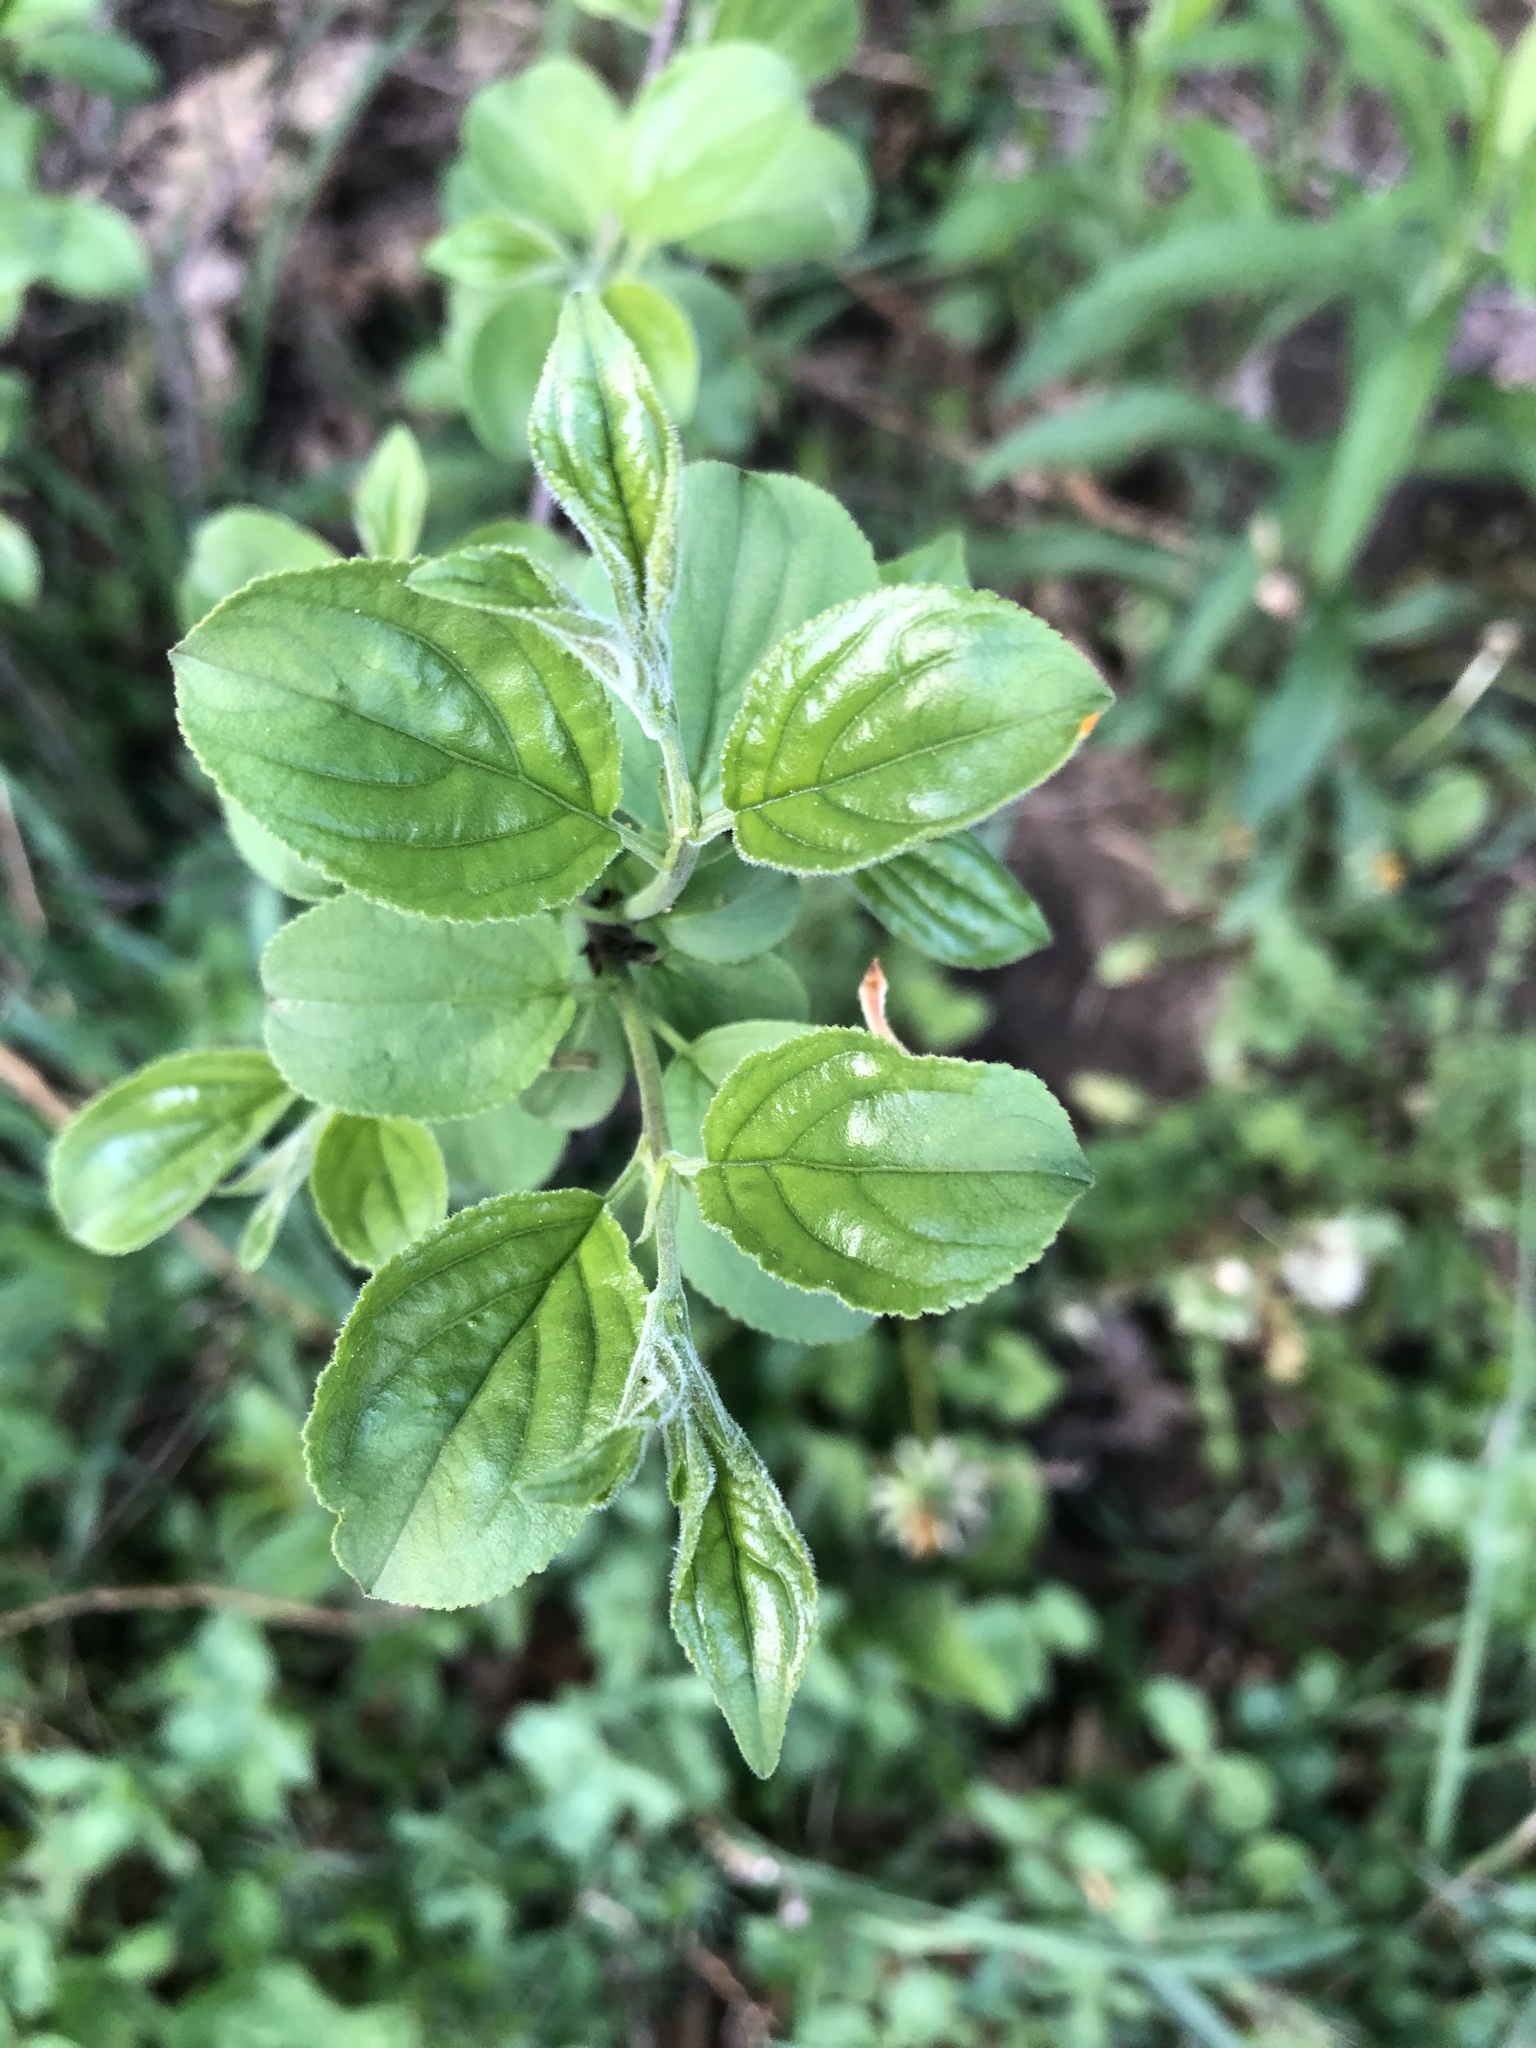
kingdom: Plantae
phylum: Tracheophyta
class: Magnoliopsida
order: Rosales
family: Rhamnaceae
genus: Rhamnus
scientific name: Rhamnus cathartica
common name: Common buckthorn
